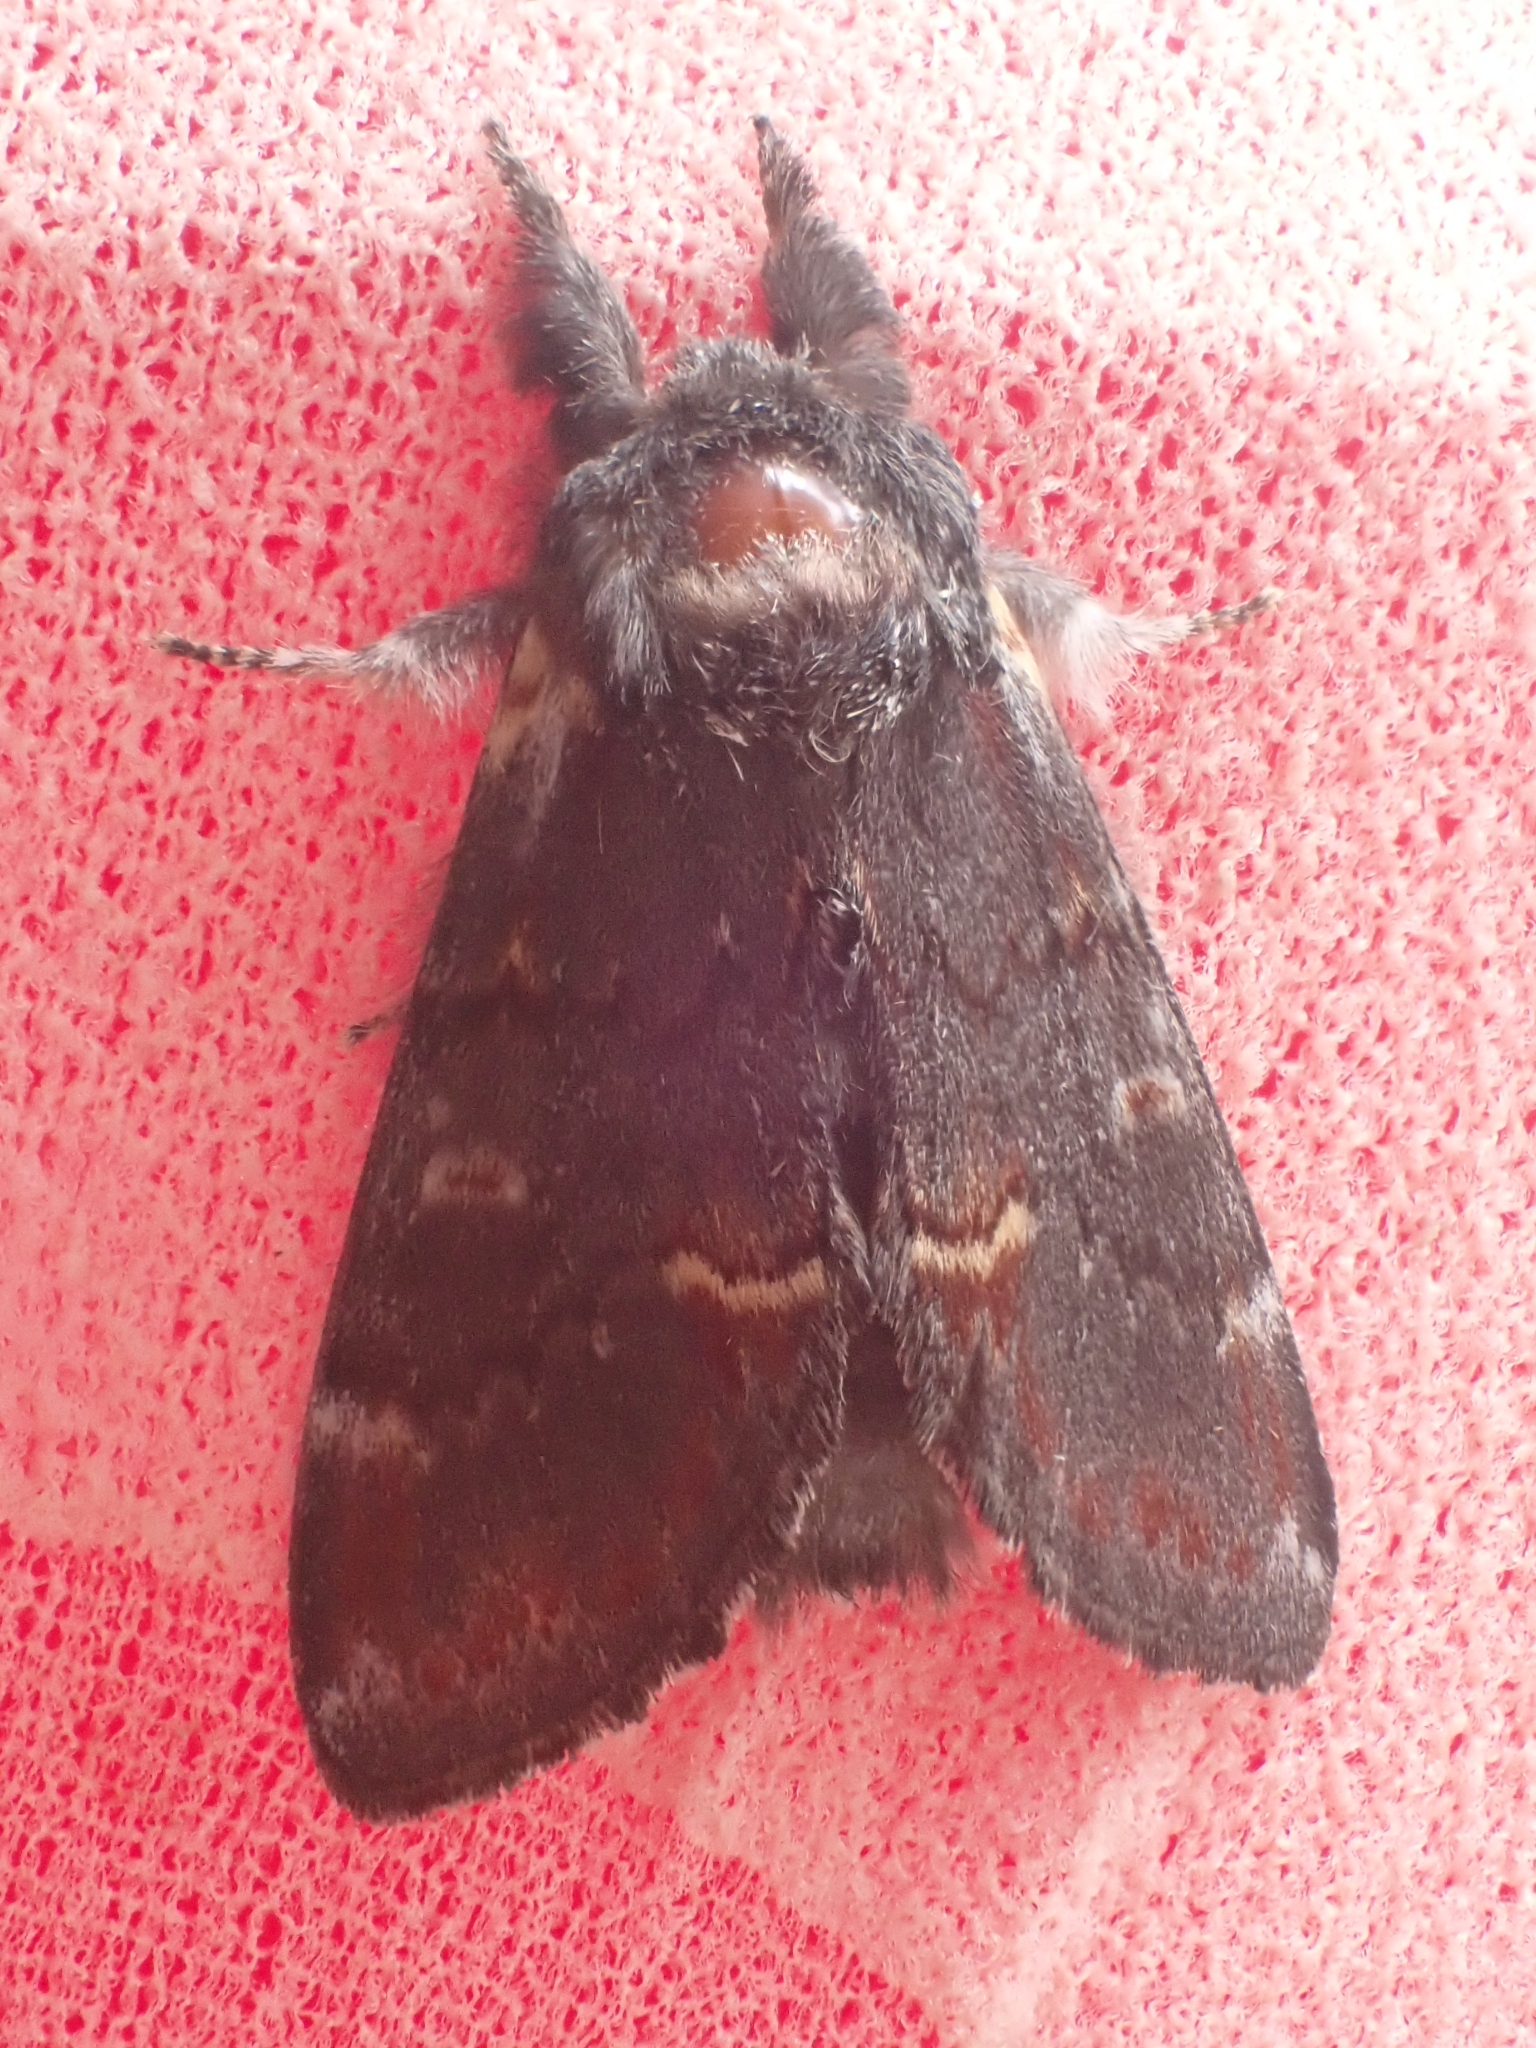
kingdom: Animalia
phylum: Arthropoda
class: Insecta
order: Lepidoptera
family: Notodontidae
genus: Notodonta
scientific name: Notodonta dromedarius
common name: Iron prominent
